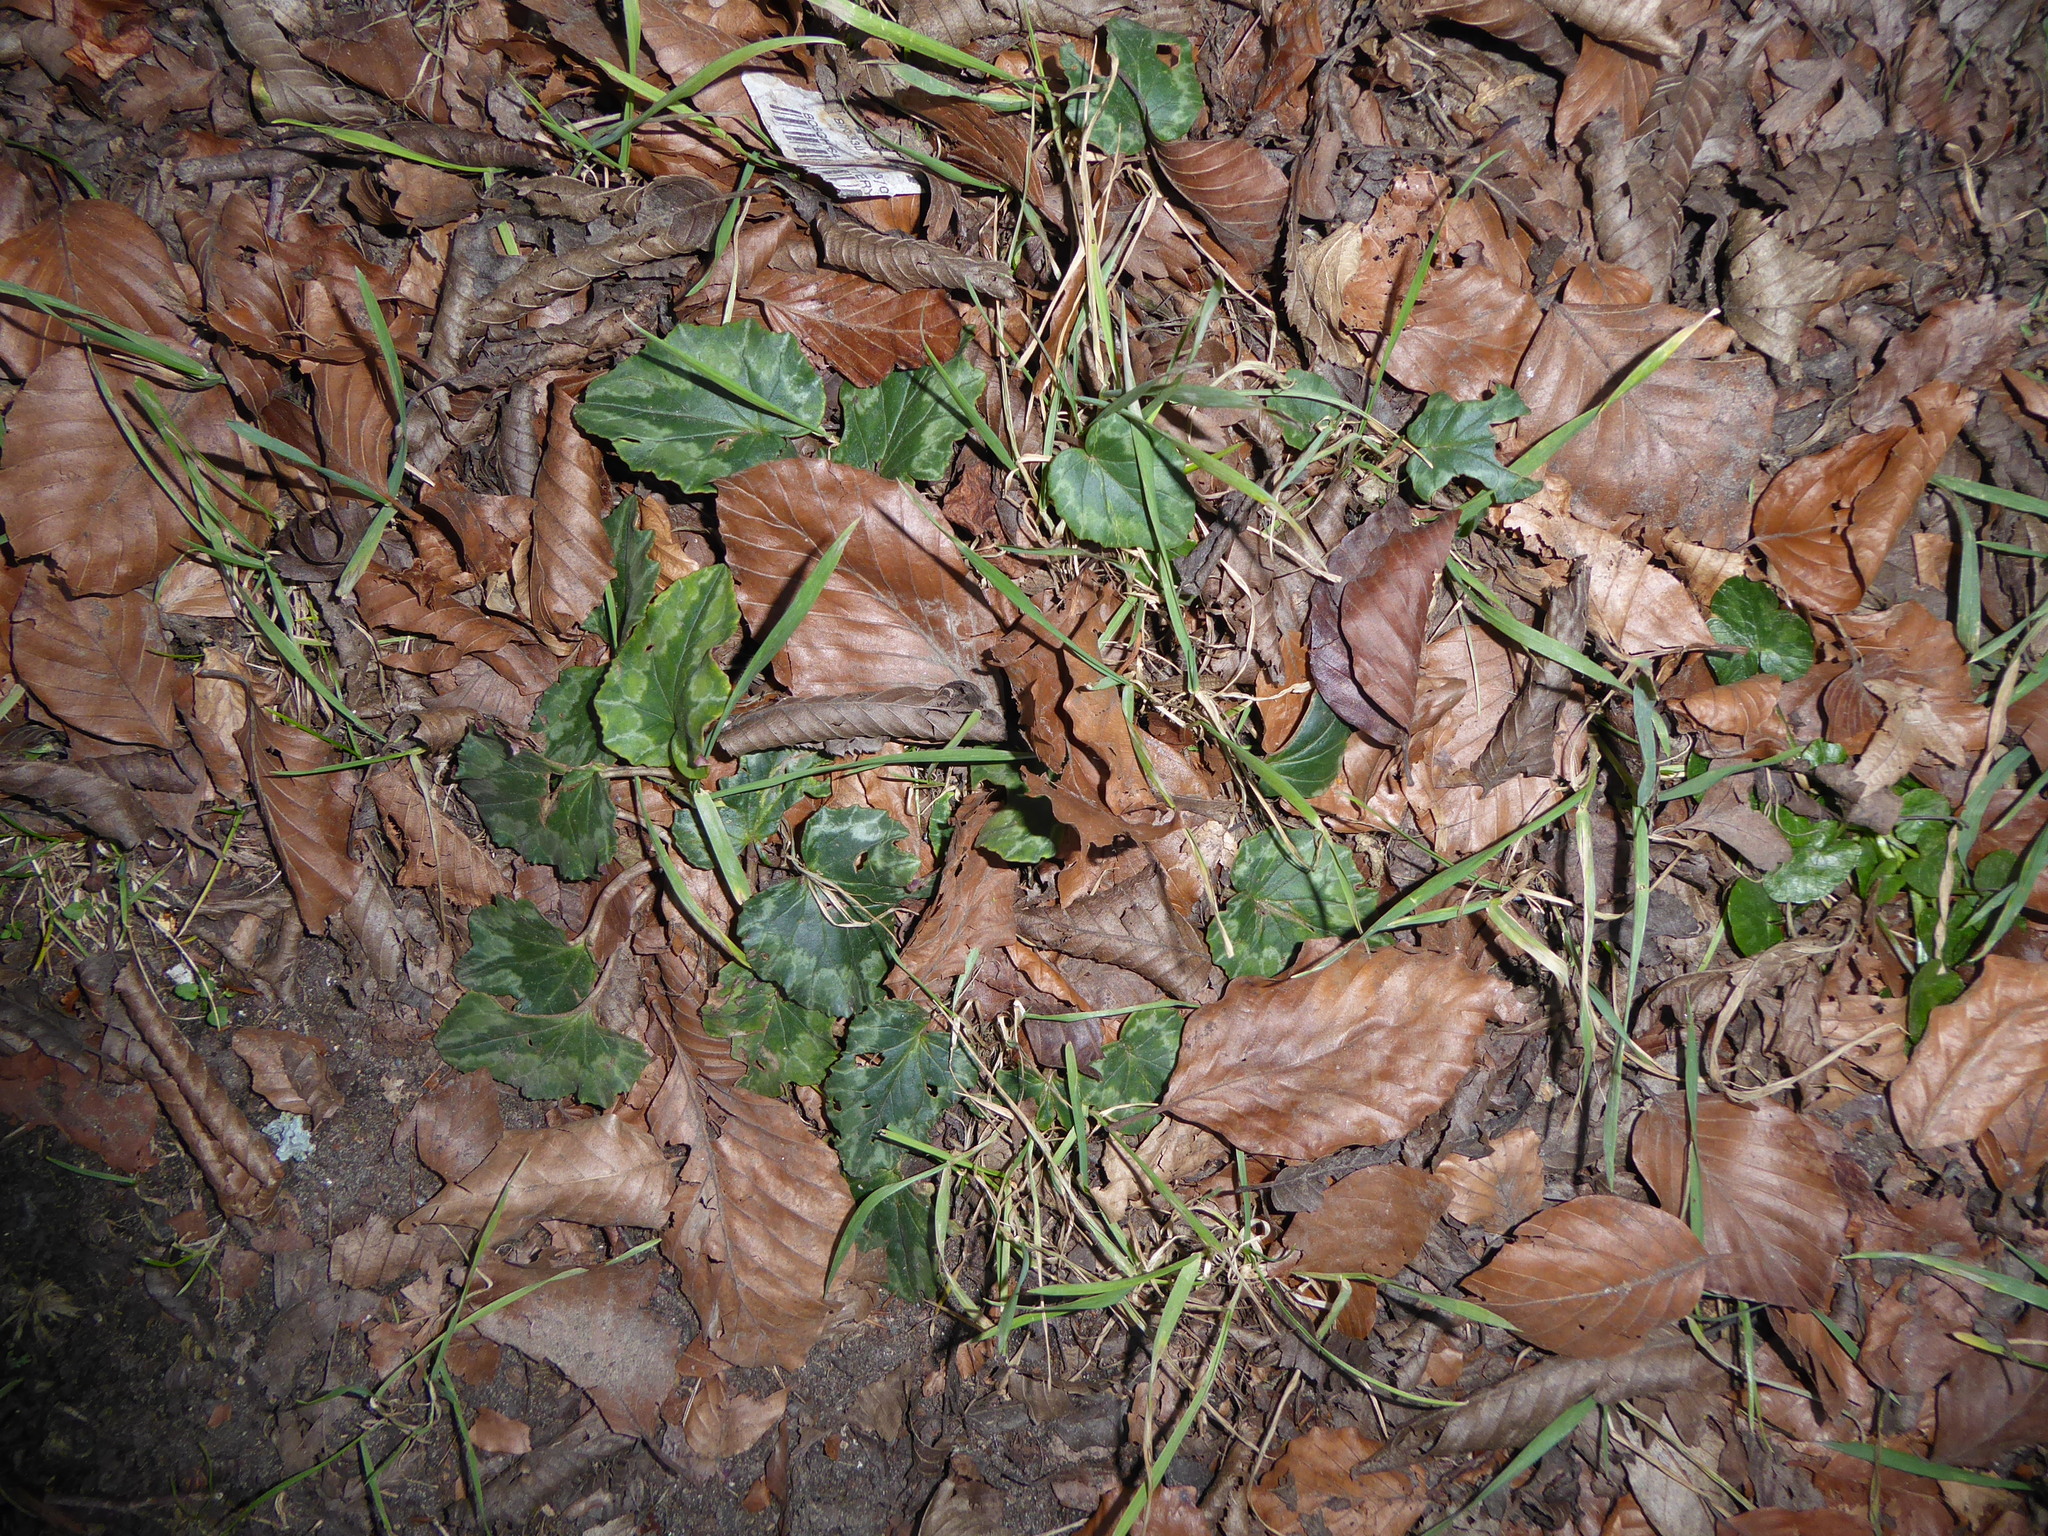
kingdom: Plantae
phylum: Tracheophyta
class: Magnoliopsida
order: Ericales
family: Primulaceae
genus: Cyclamen
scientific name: Cyclamen hederifolium
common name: Sowbread
